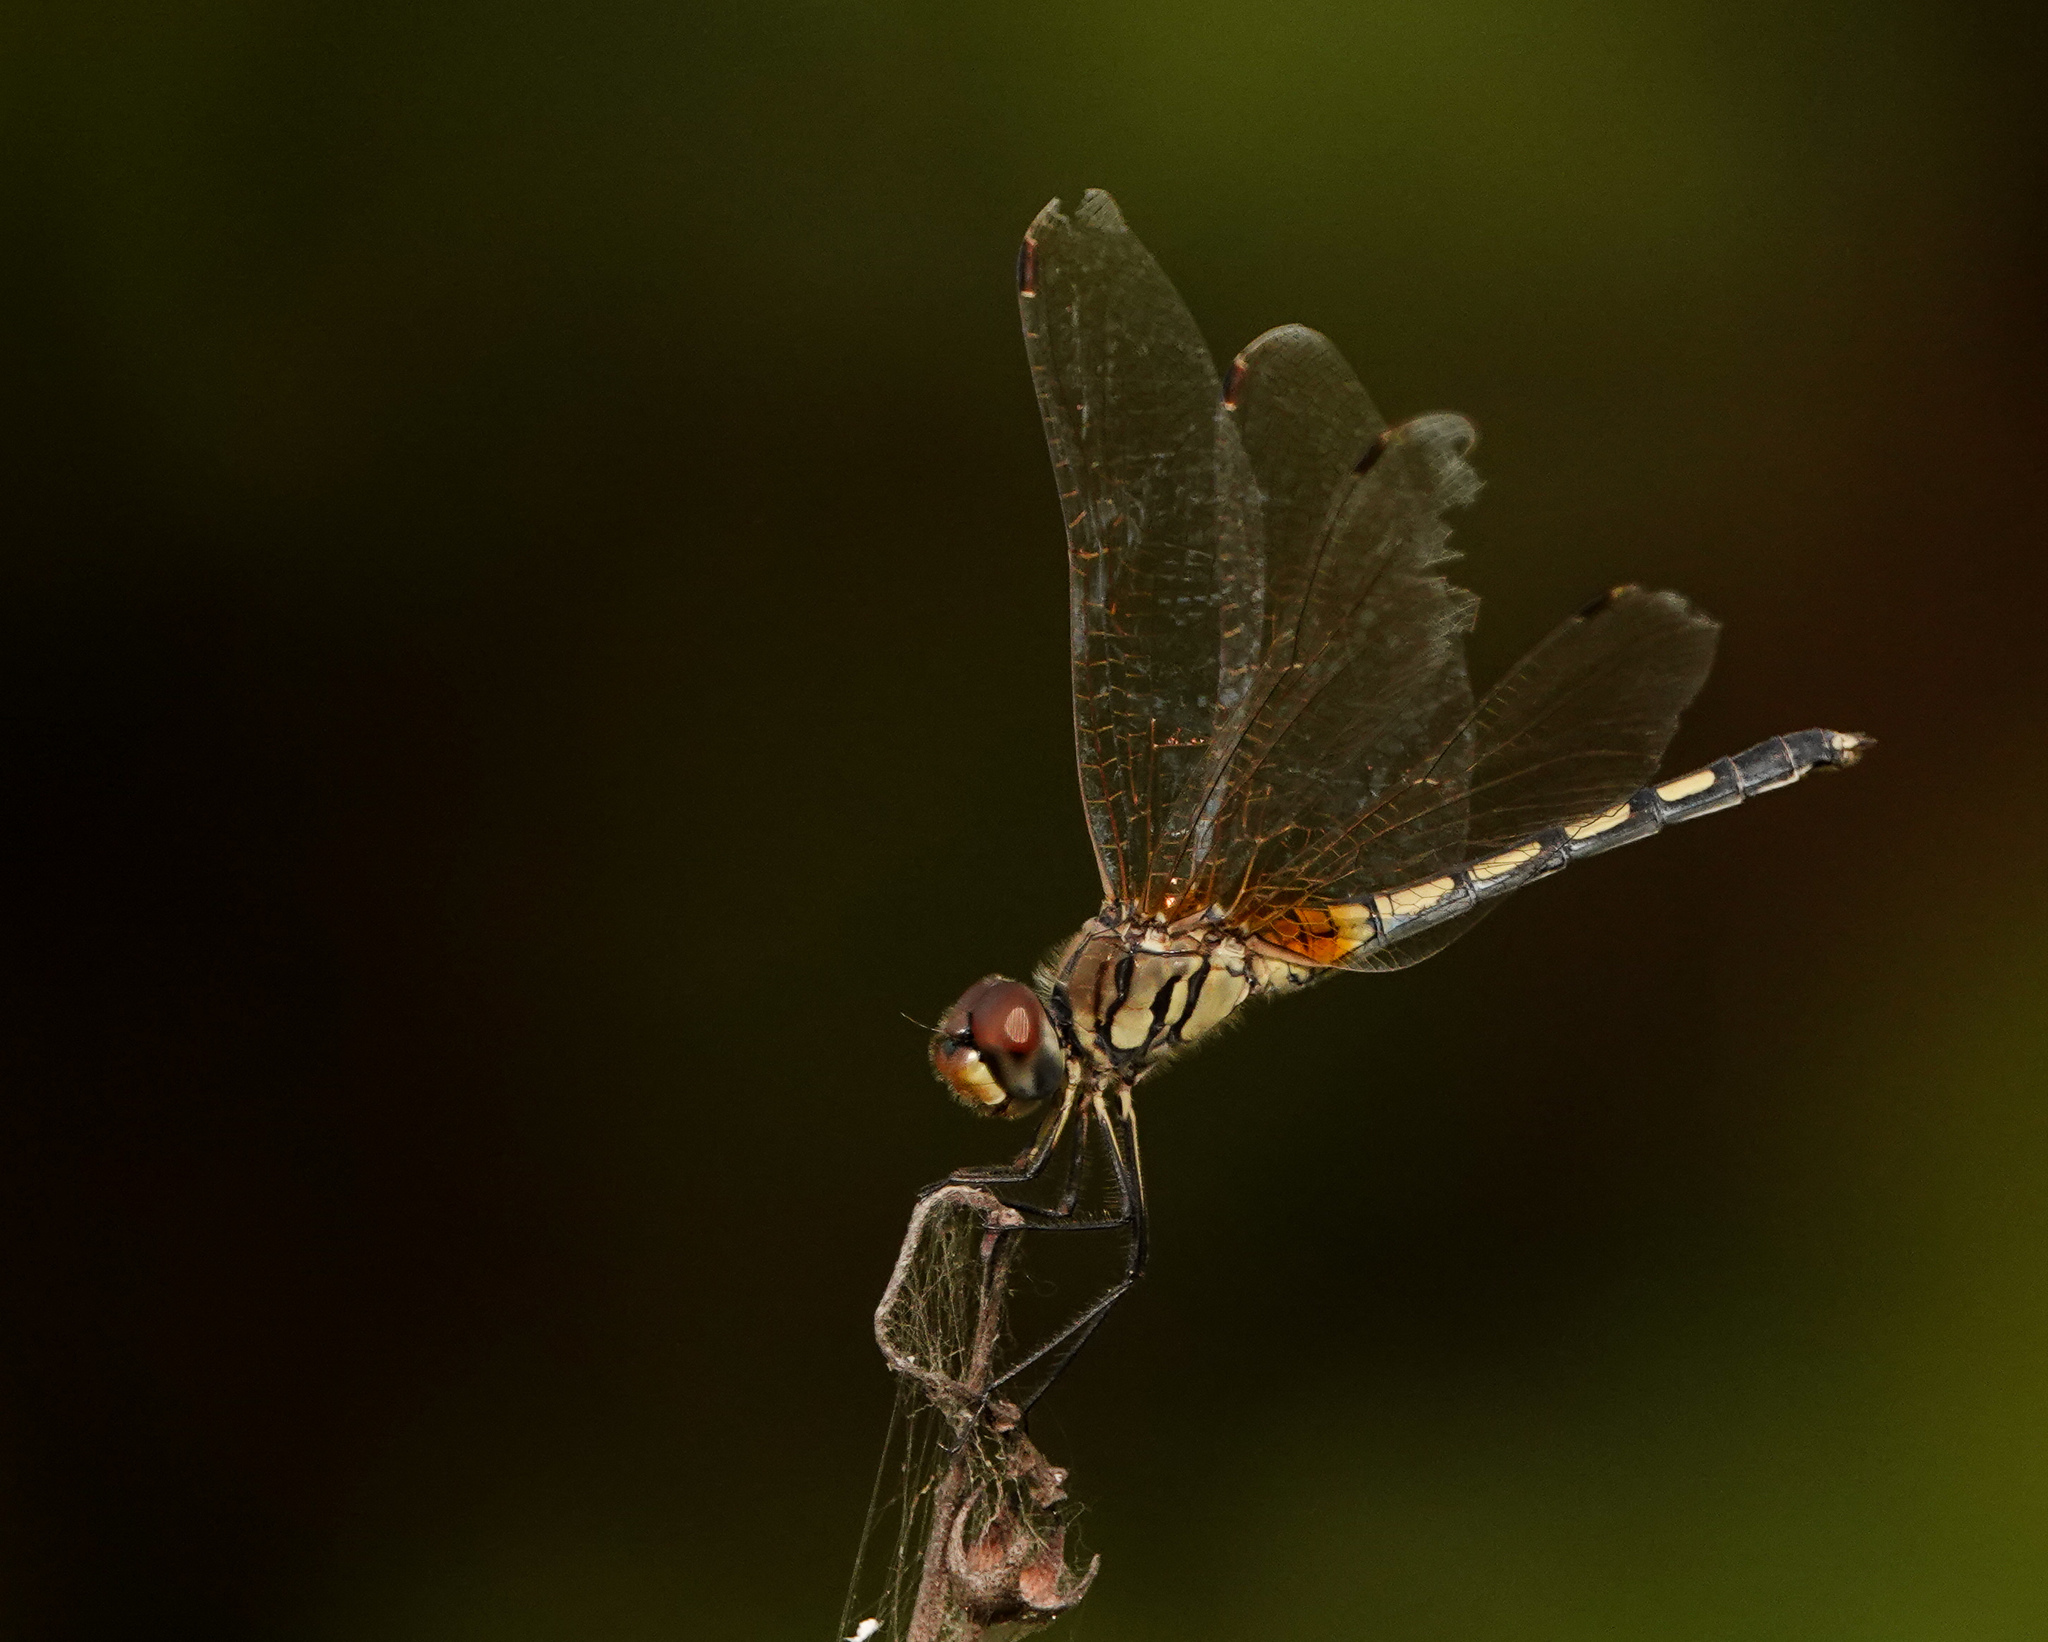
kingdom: Animalia
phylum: Arthropoda
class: Insecta
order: Odonata
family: Libellulidae
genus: Trithemis
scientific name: Trithemis pallidinervis
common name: Dancing dropwing
